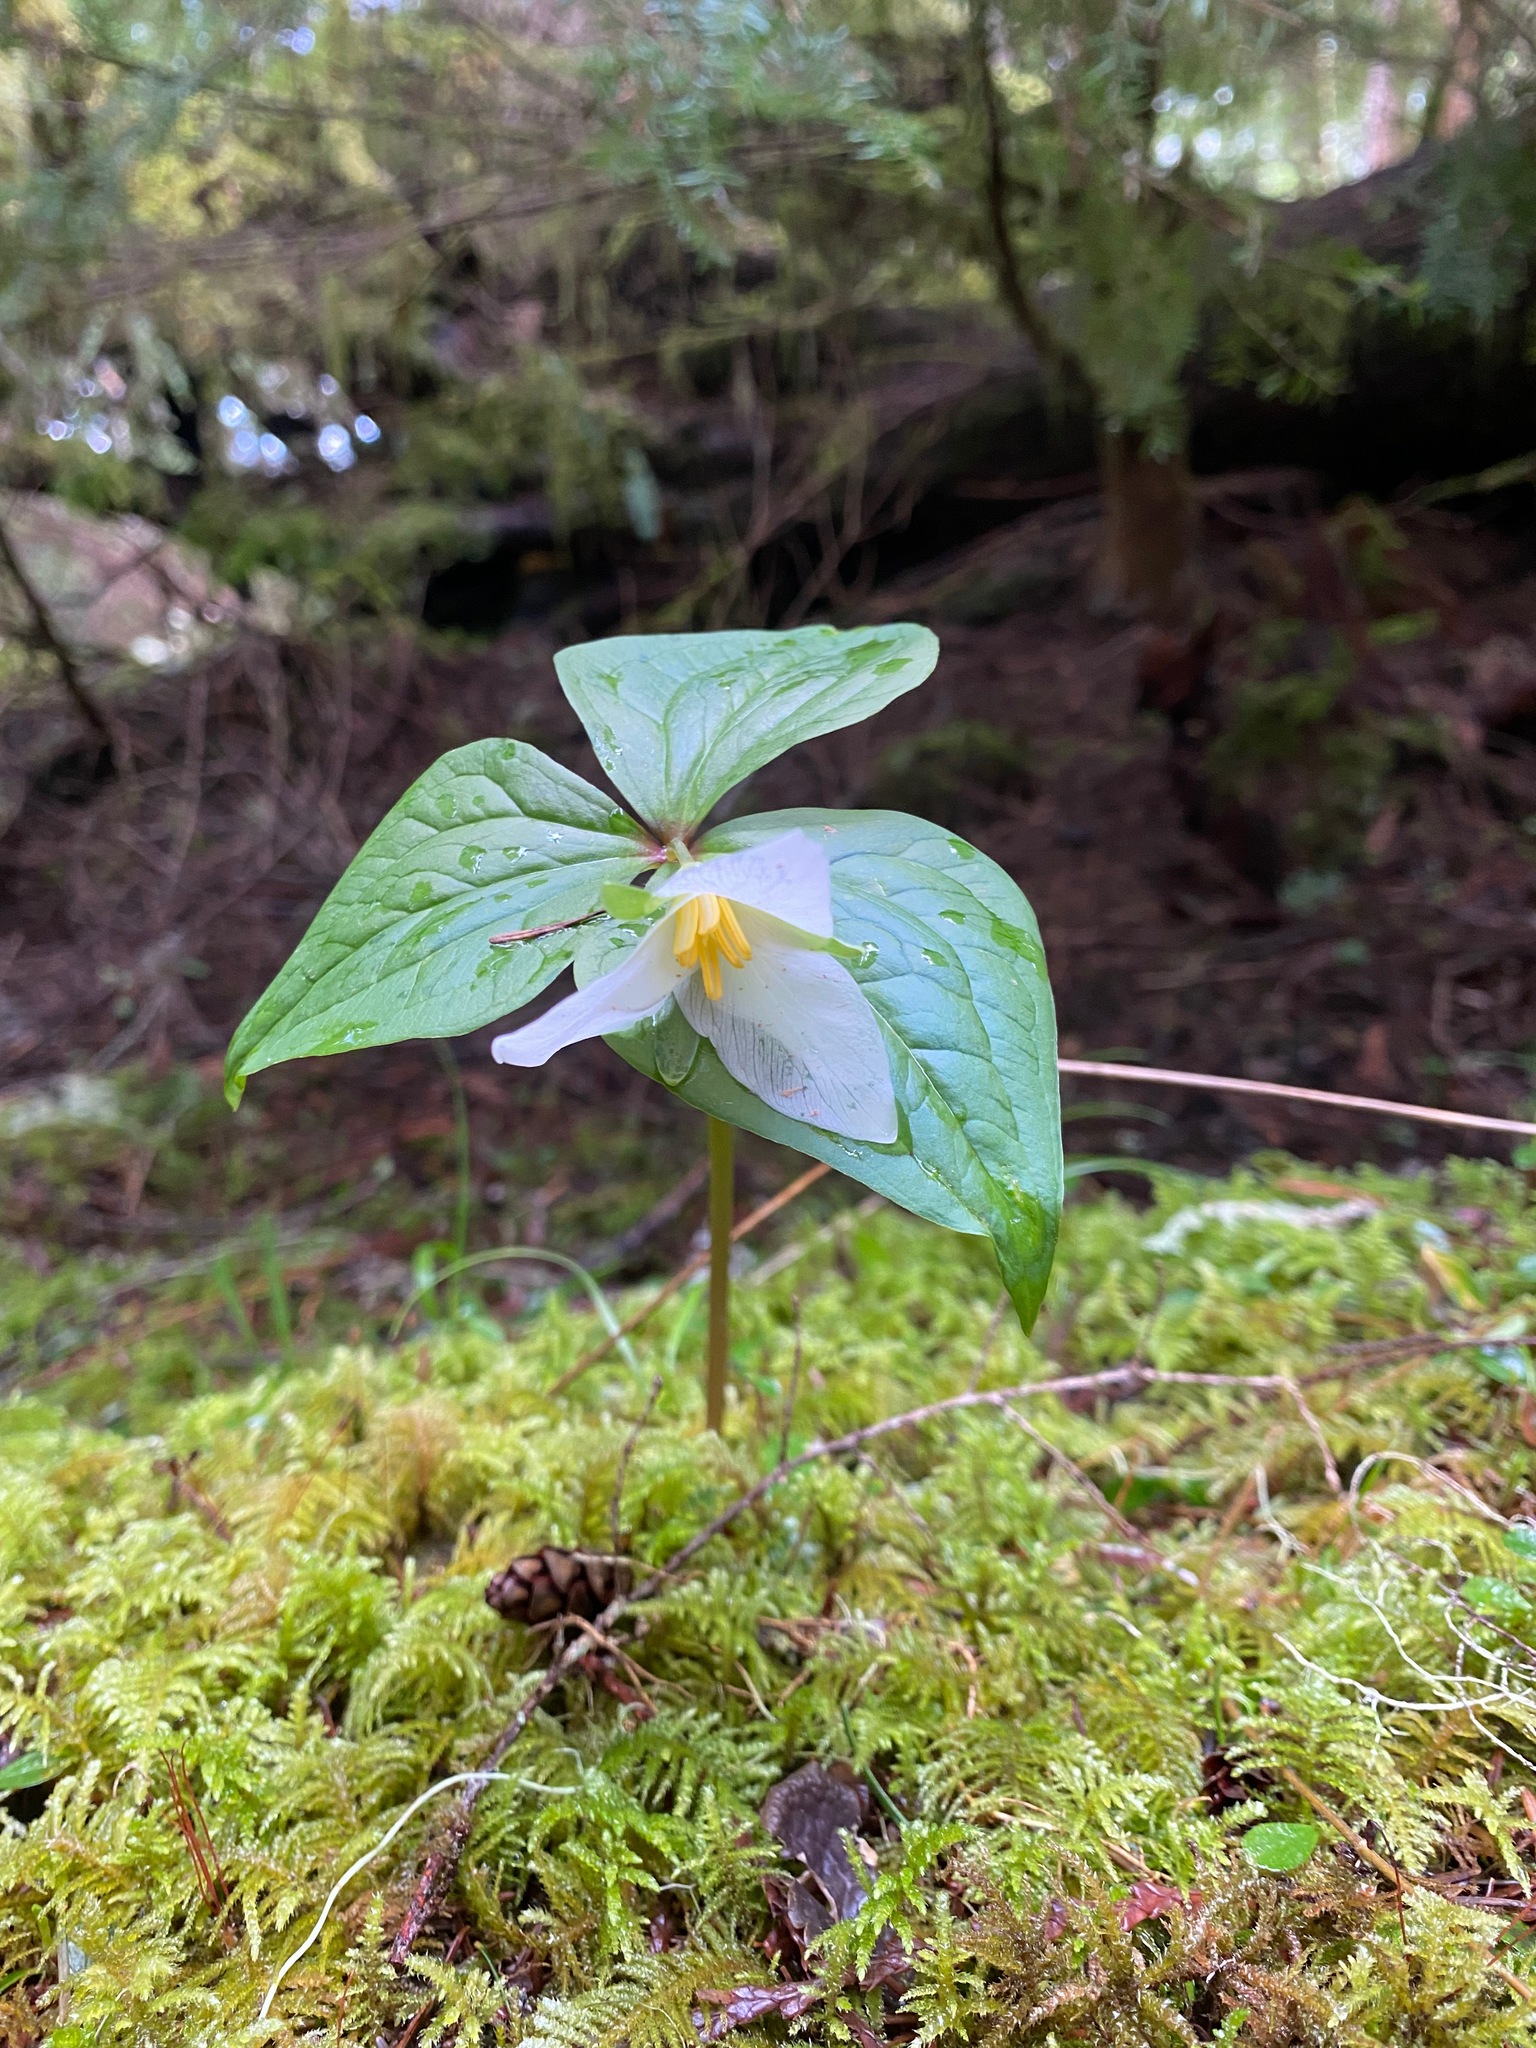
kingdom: Plantae
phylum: Tracheophyta
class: Liliopsida
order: Liliales
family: Melanthiaceae
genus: Trillium
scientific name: Trillium ovatum
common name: Pacific trillium
